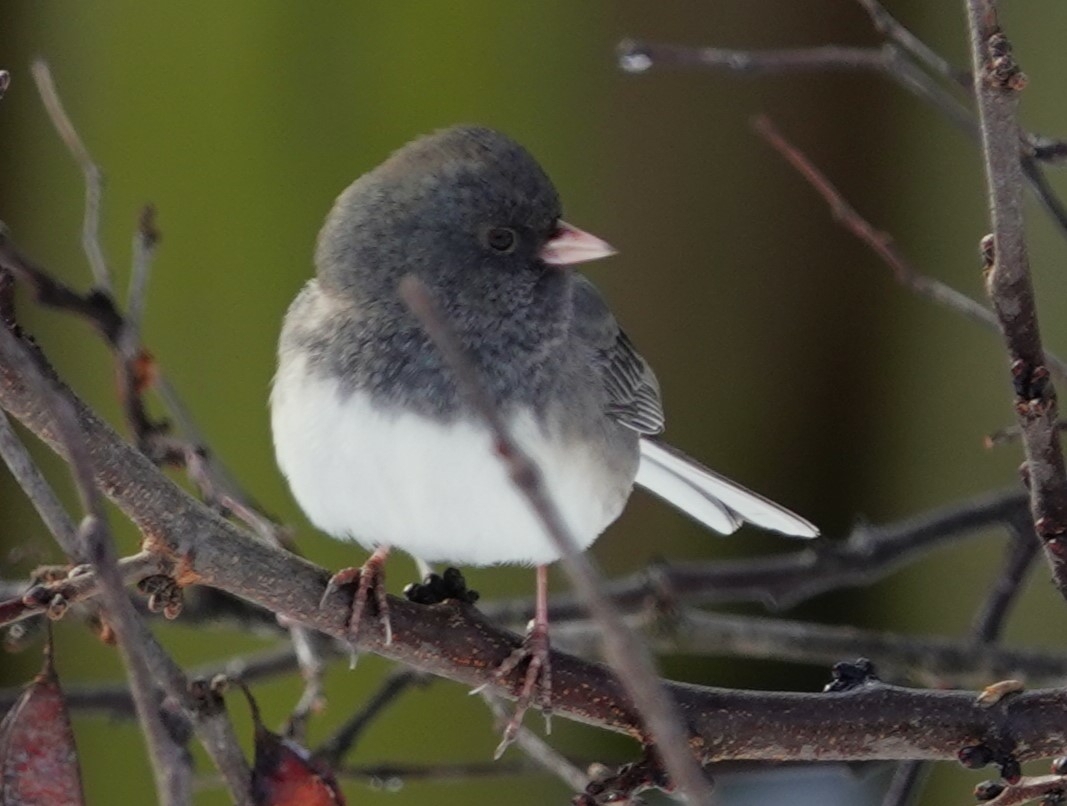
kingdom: Animalia
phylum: Chordata
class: Aves
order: Passeriformes
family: Passerellidae
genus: Junco
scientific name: Junco hyemalis
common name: Dark-eyed junco
